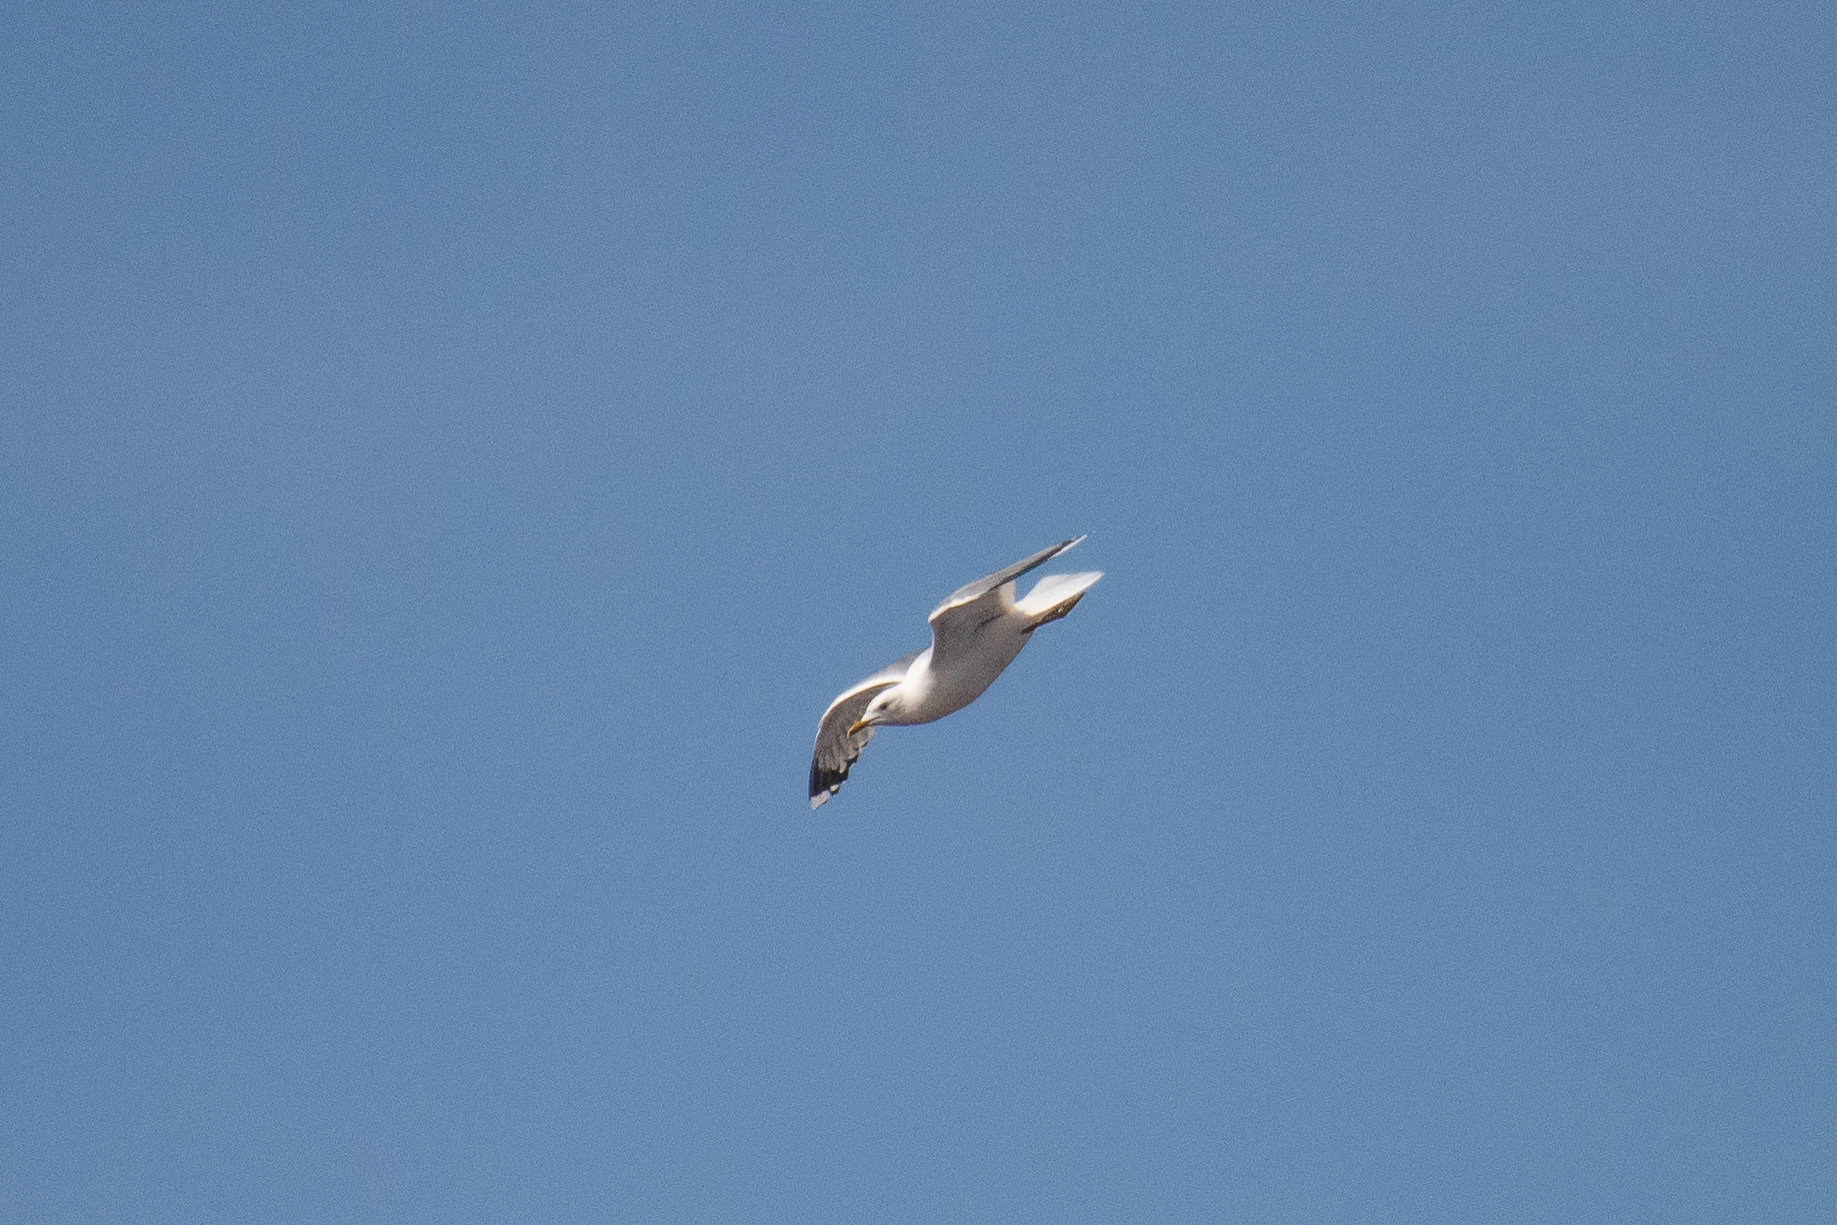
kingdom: Animalia
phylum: Chordata
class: Aves
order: Charadriiformes
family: Laridae
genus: Larus
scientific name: Larus canus
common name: Mew gull
